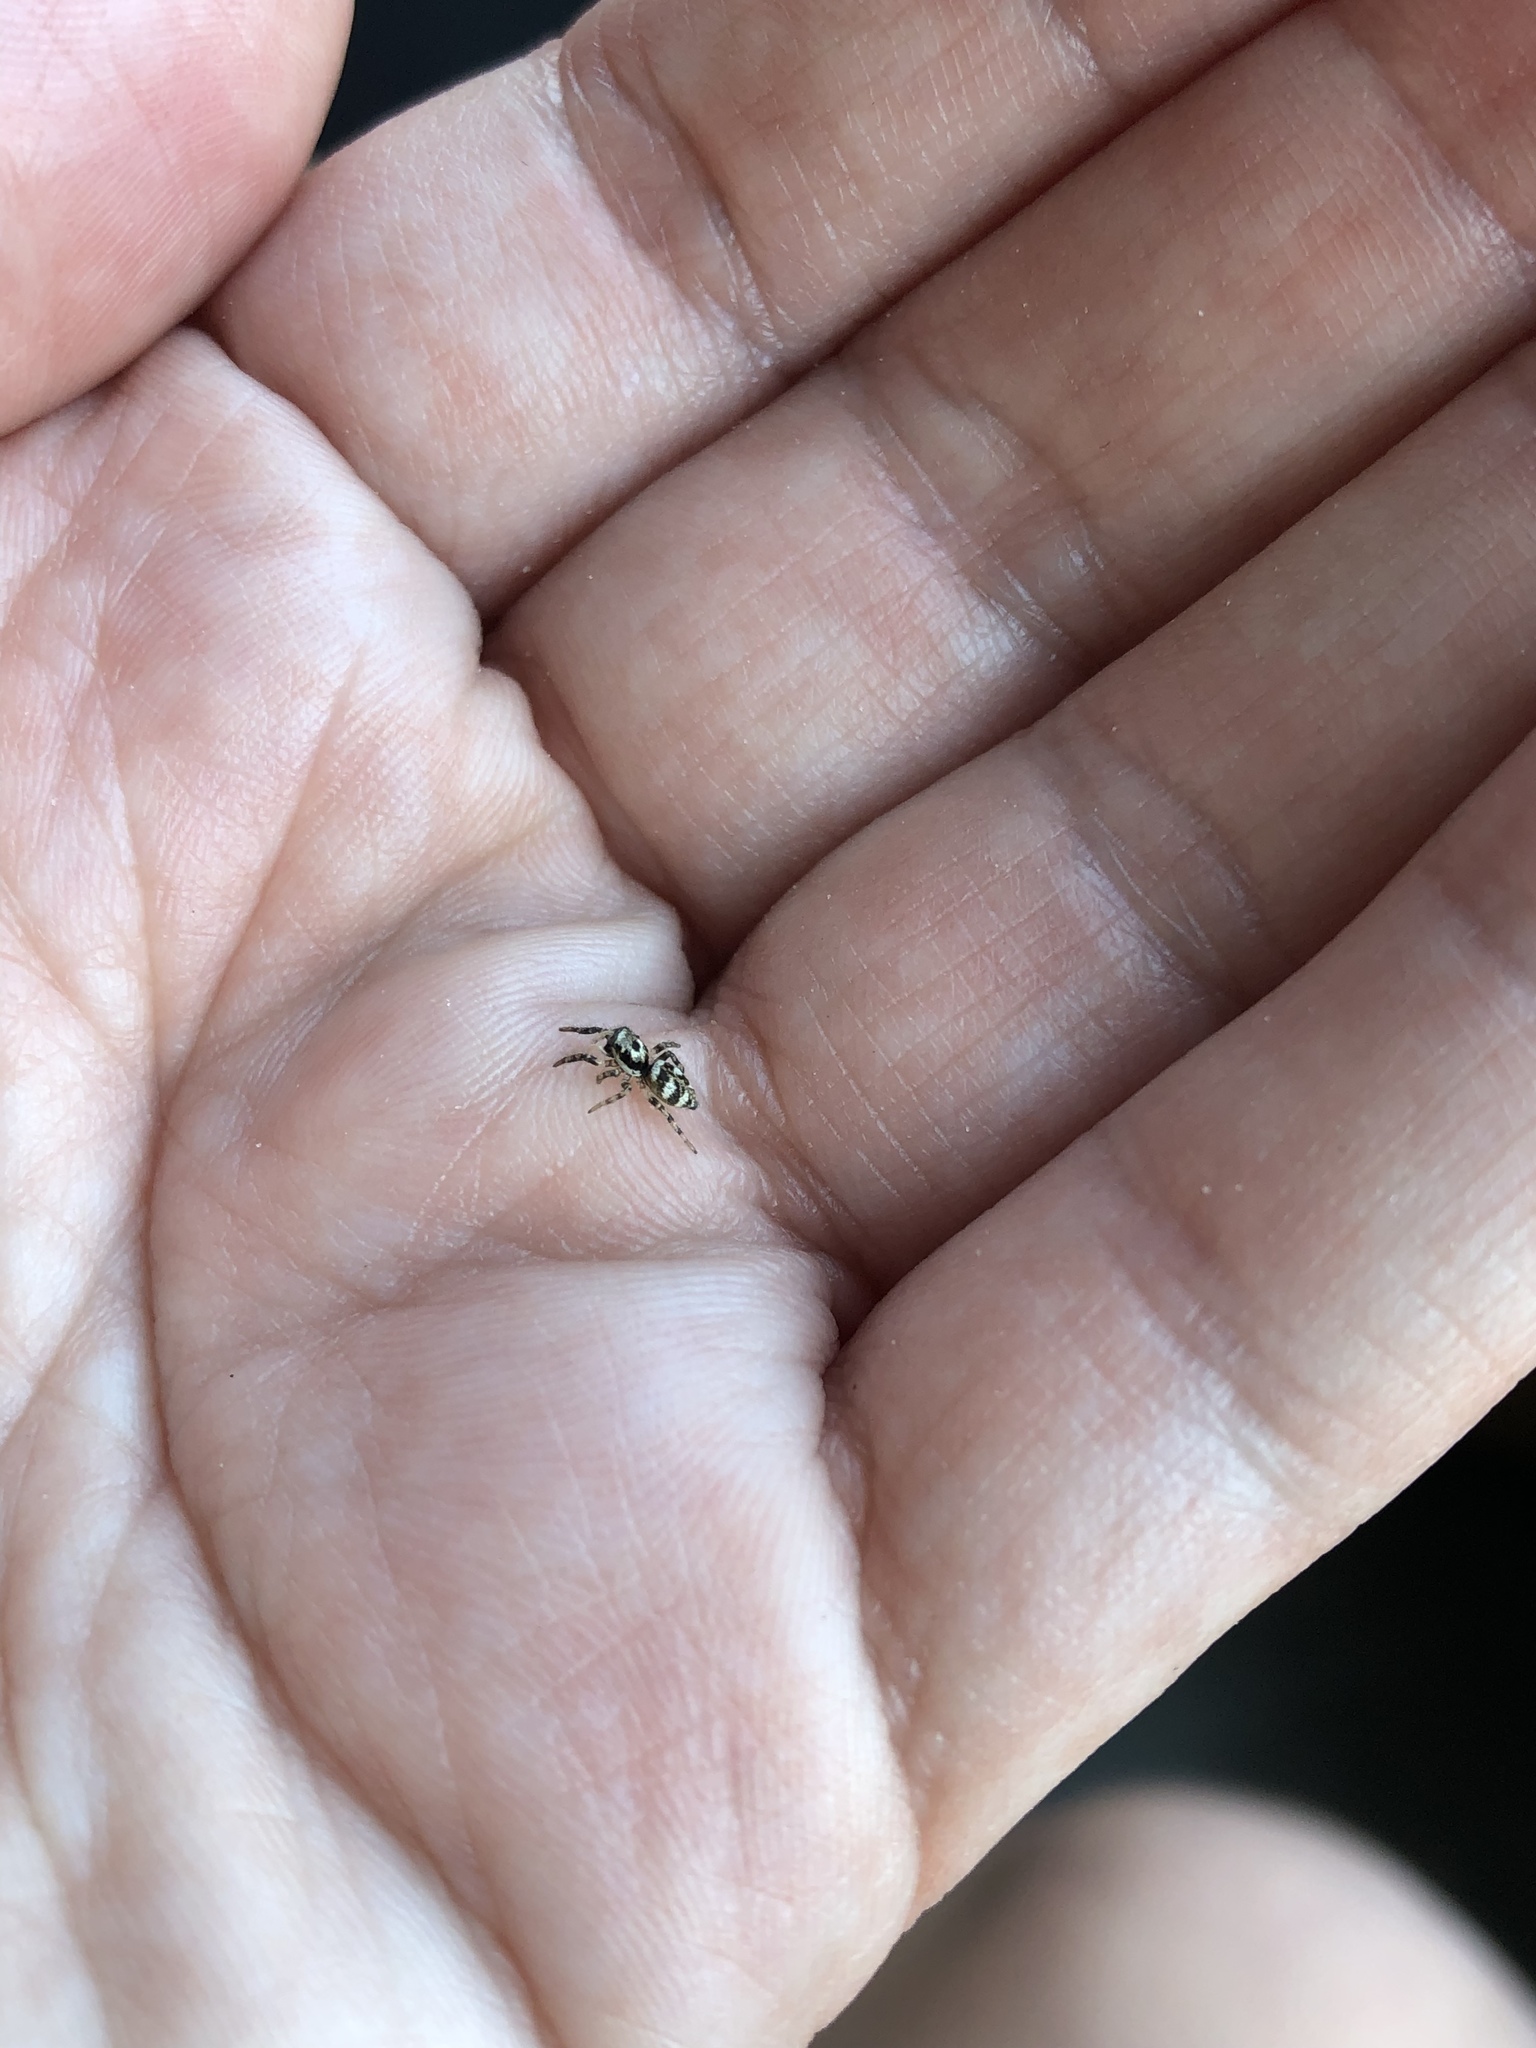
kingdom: Animalia
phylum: Arthropoda
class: Arachnida
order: Araneae
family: Salticidae
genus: Salticus
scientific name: Salticus scenicus
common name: Zebra jumper
